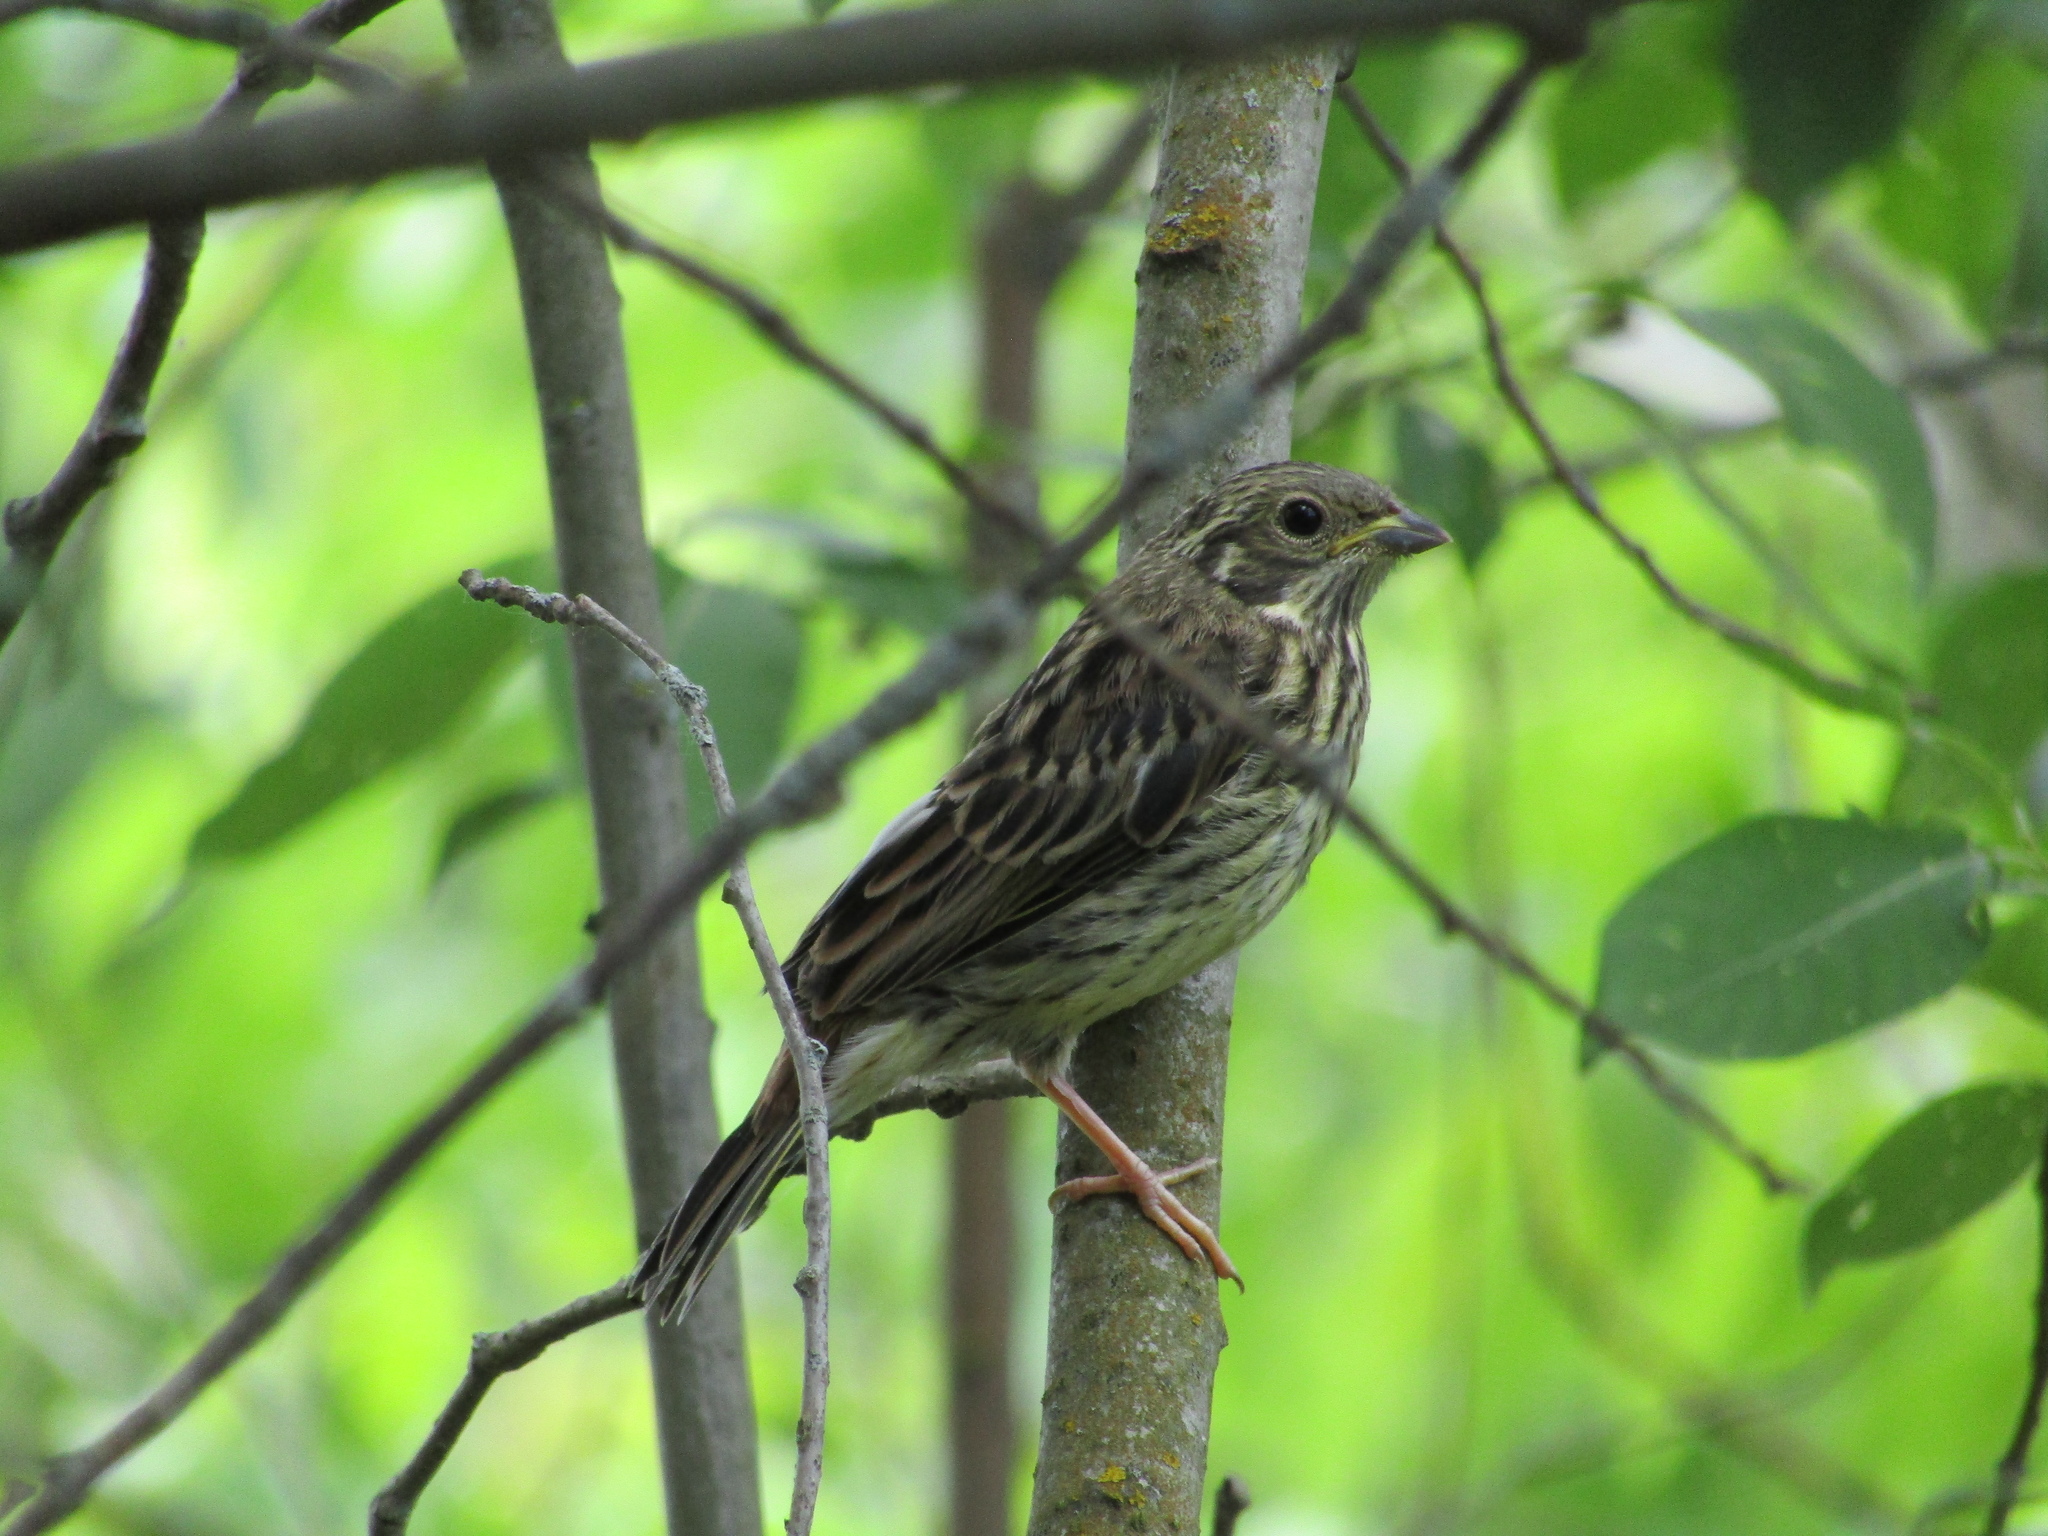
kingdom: Animalia
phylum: Chordata
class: Aves
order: Passeriformes
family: Emberizidae
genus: Emberiza
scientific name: Emberiza citrinella
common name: Yellowhammer
